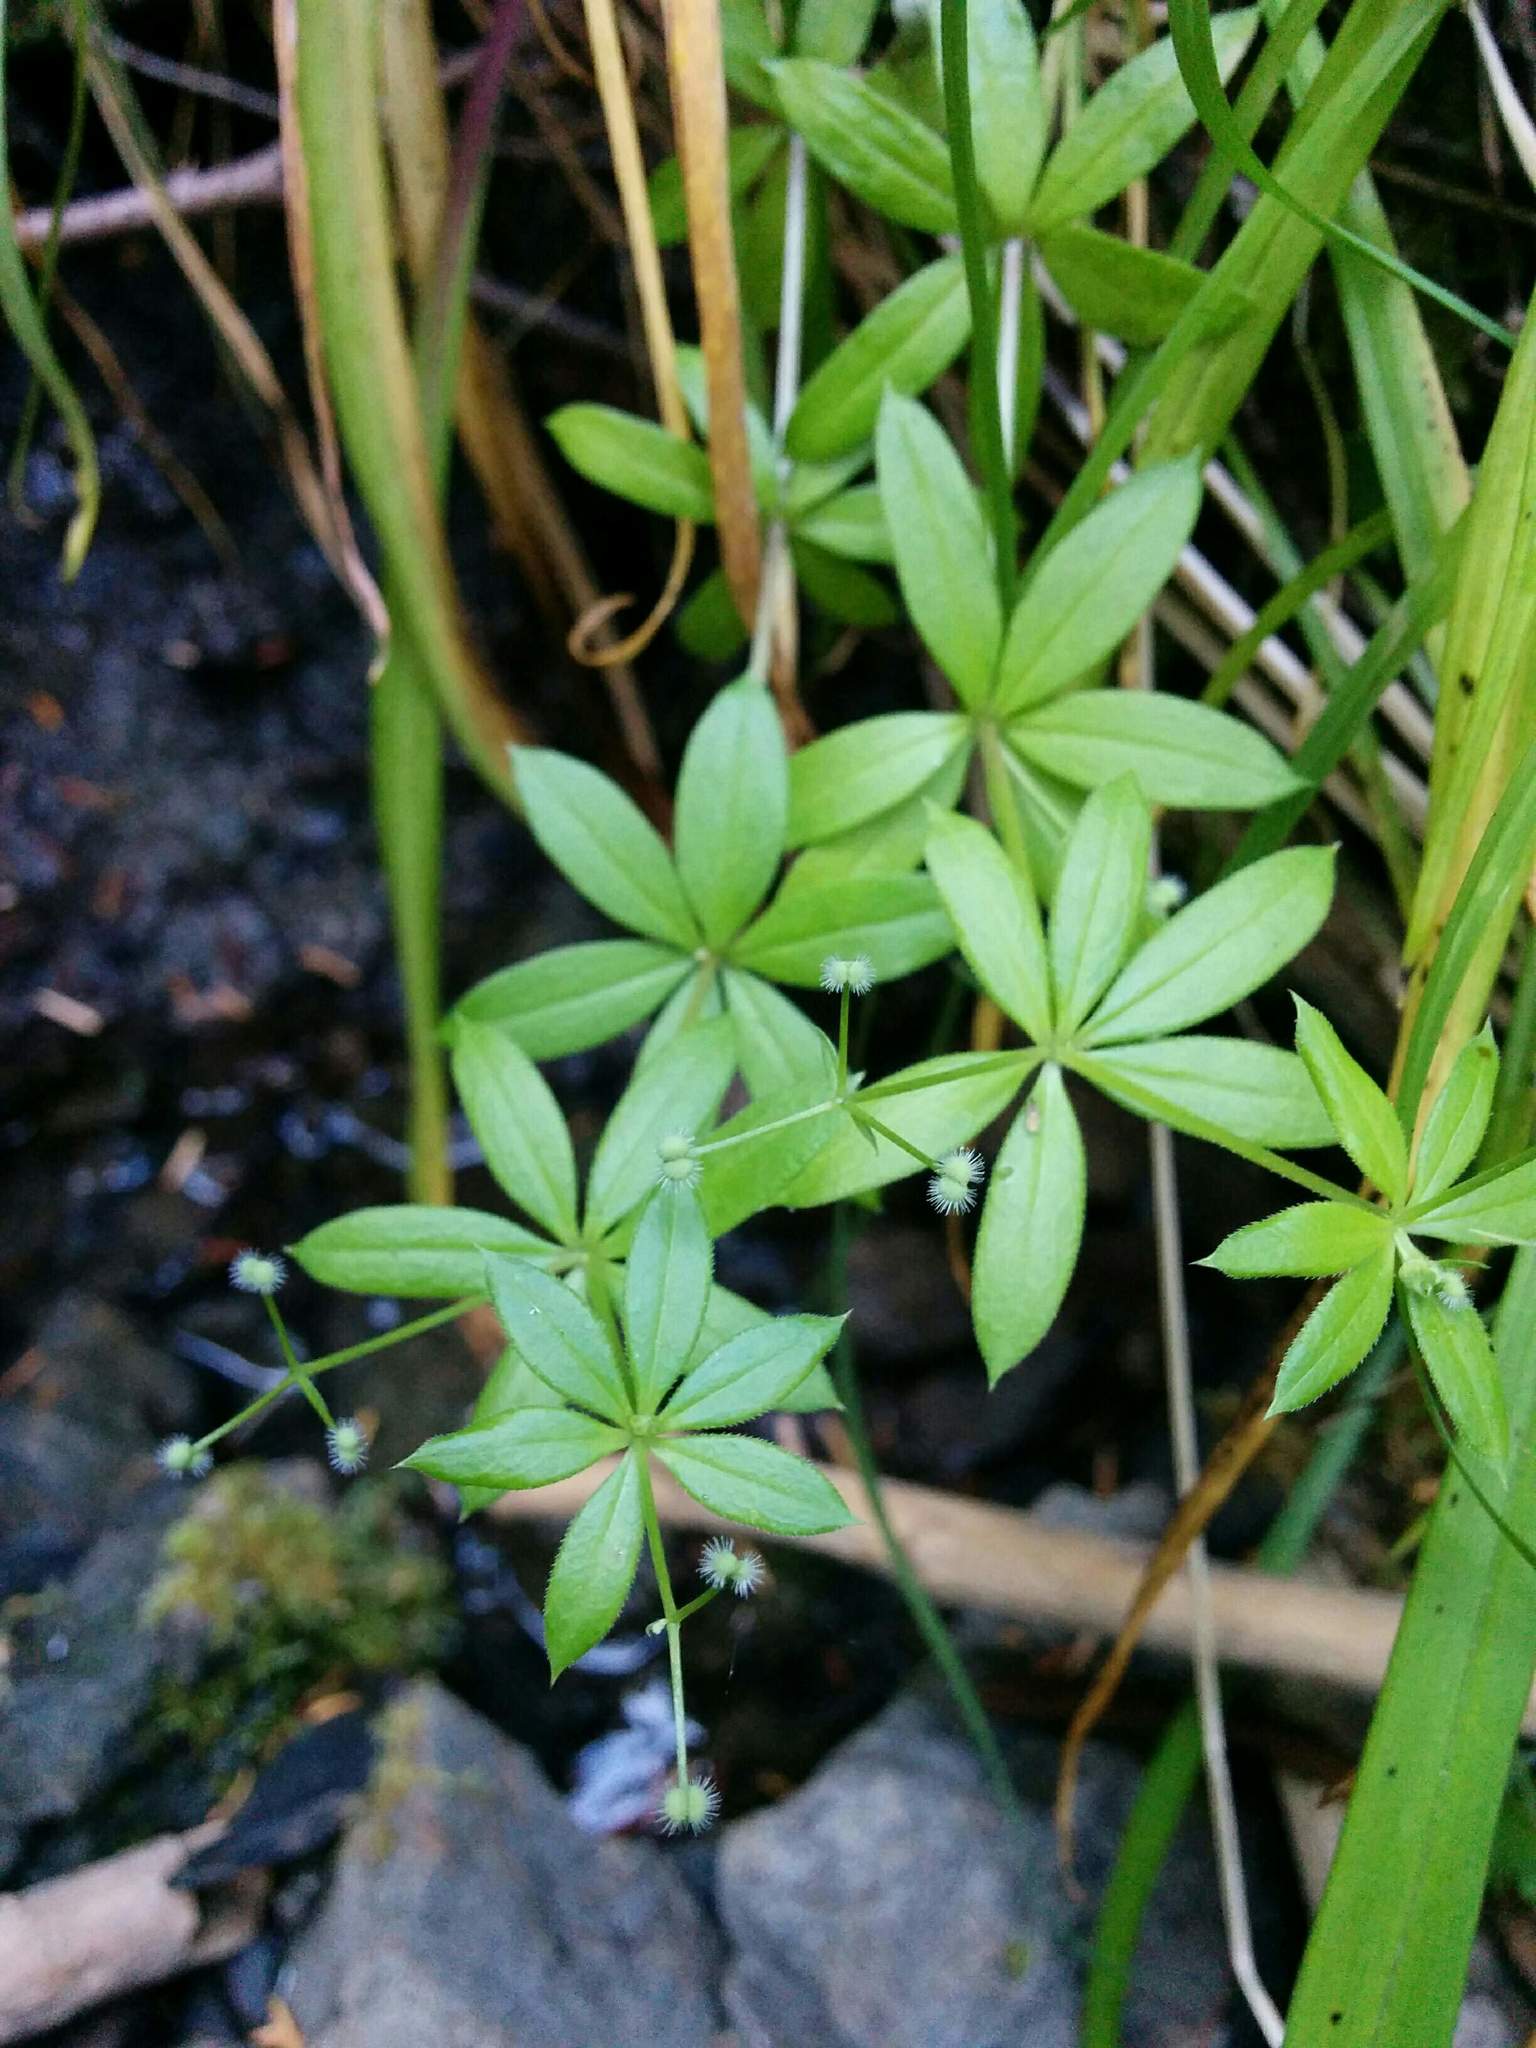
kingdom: Plantae
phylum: Tracheophyta
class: Magnoliopsida
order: Gentianales
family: Rubiaceae
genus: Galium
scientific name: Galium triflorum
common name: Fragrant bedstraw
